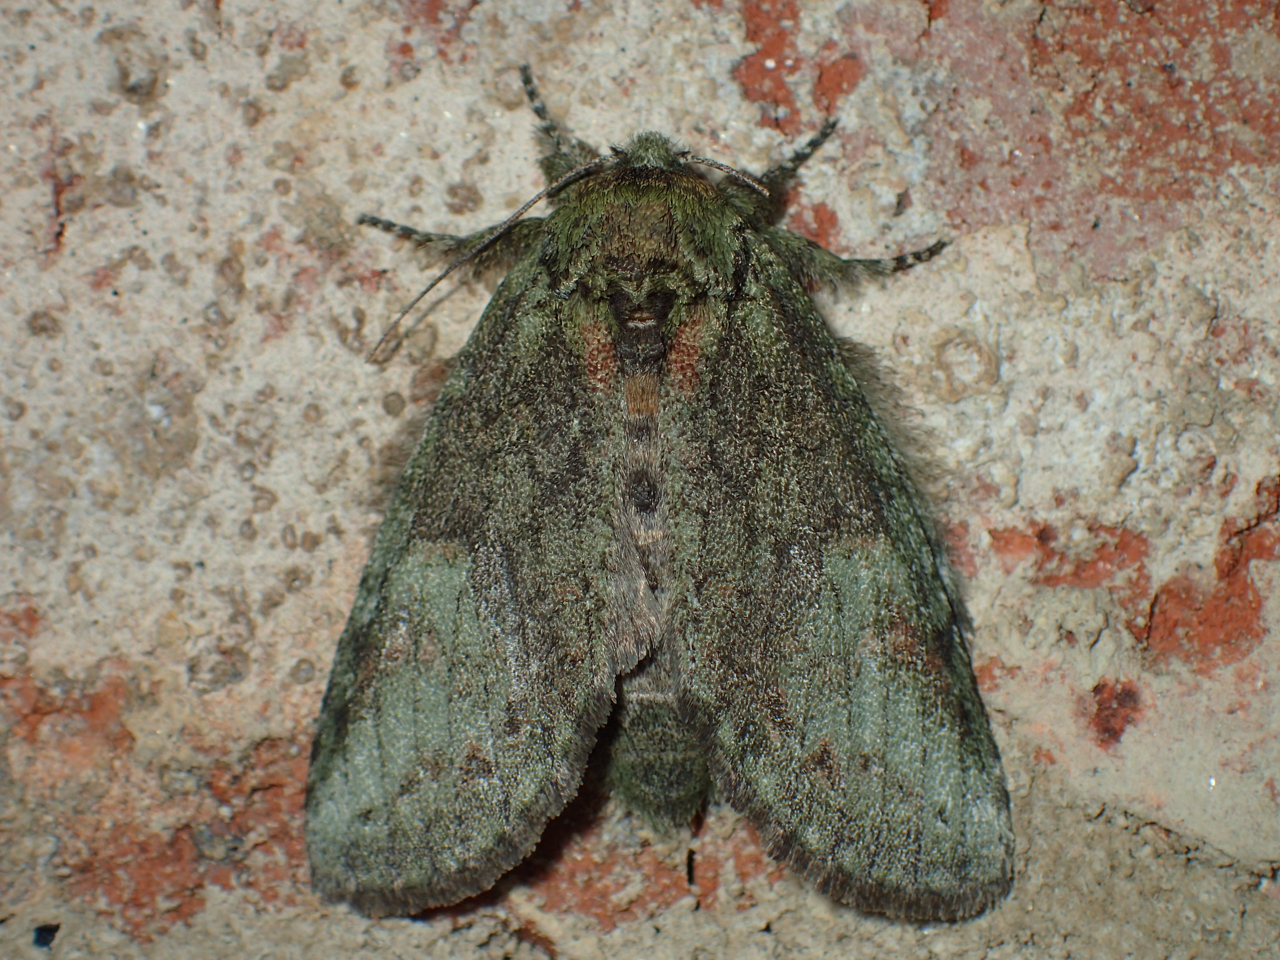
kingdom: Animalia
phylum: Arthropoda
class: Insecta
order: Lepidoptera
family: Notodontidae
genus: Disphragis
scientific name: Disphragis Cecrita guttivitta
